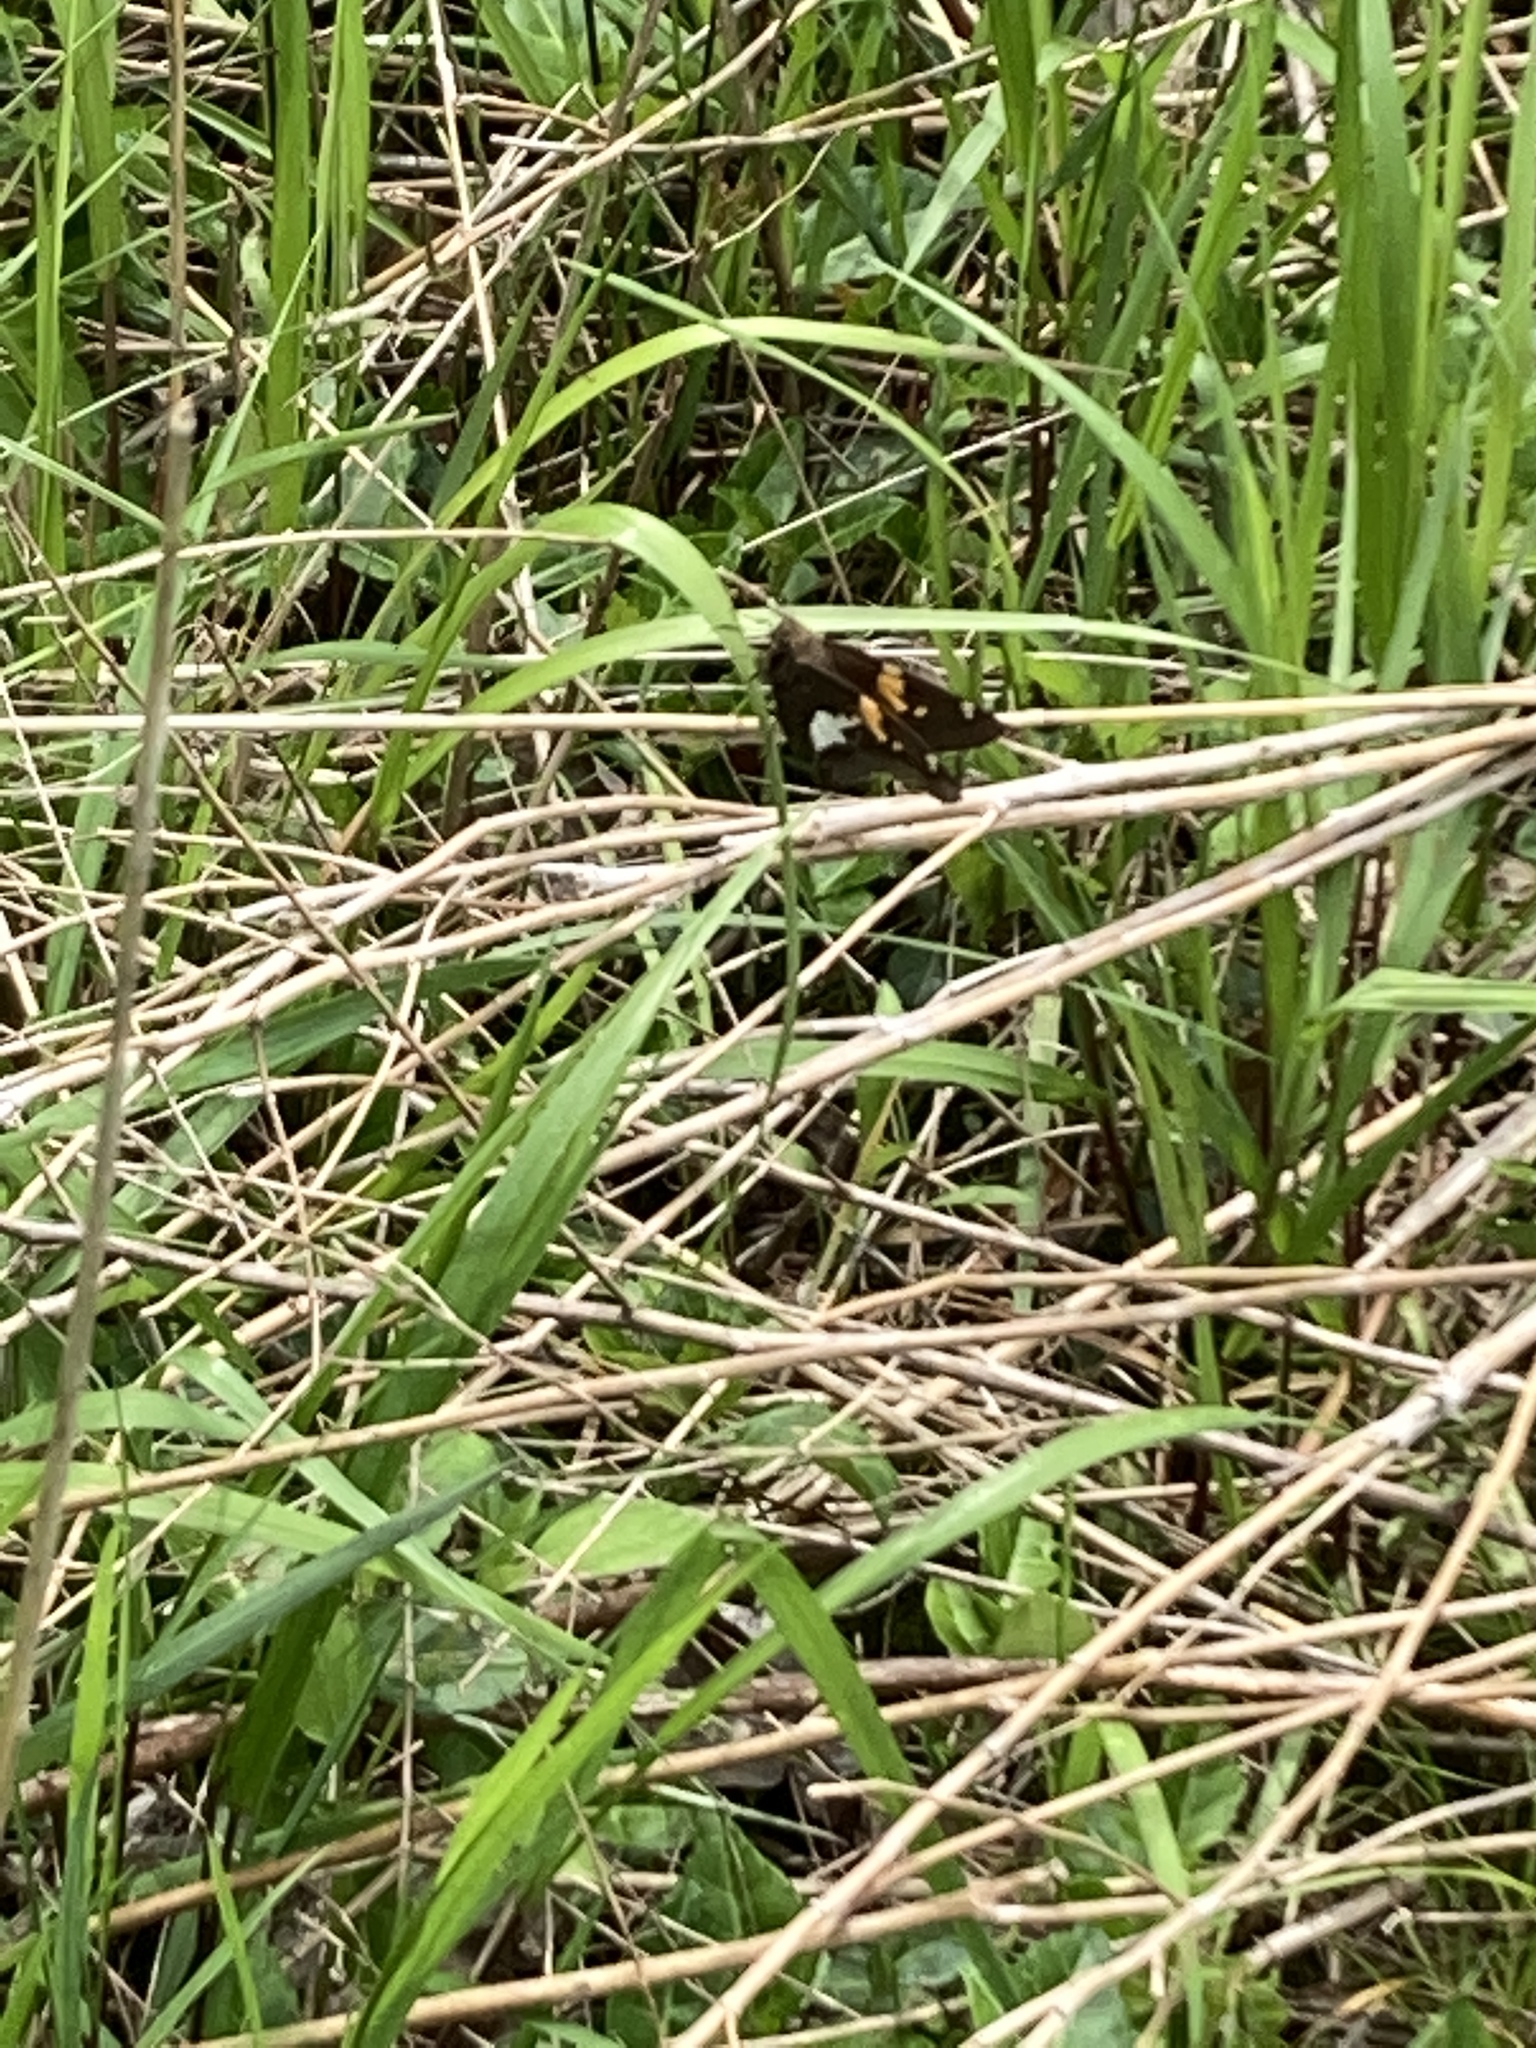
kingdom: Animalia
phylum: Arthropoda
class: Insecta
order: Lepidoptera
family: Hesperiidae
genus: Epargyreus
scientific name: Epargyreus clarus
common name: Silver-spotted skipper
